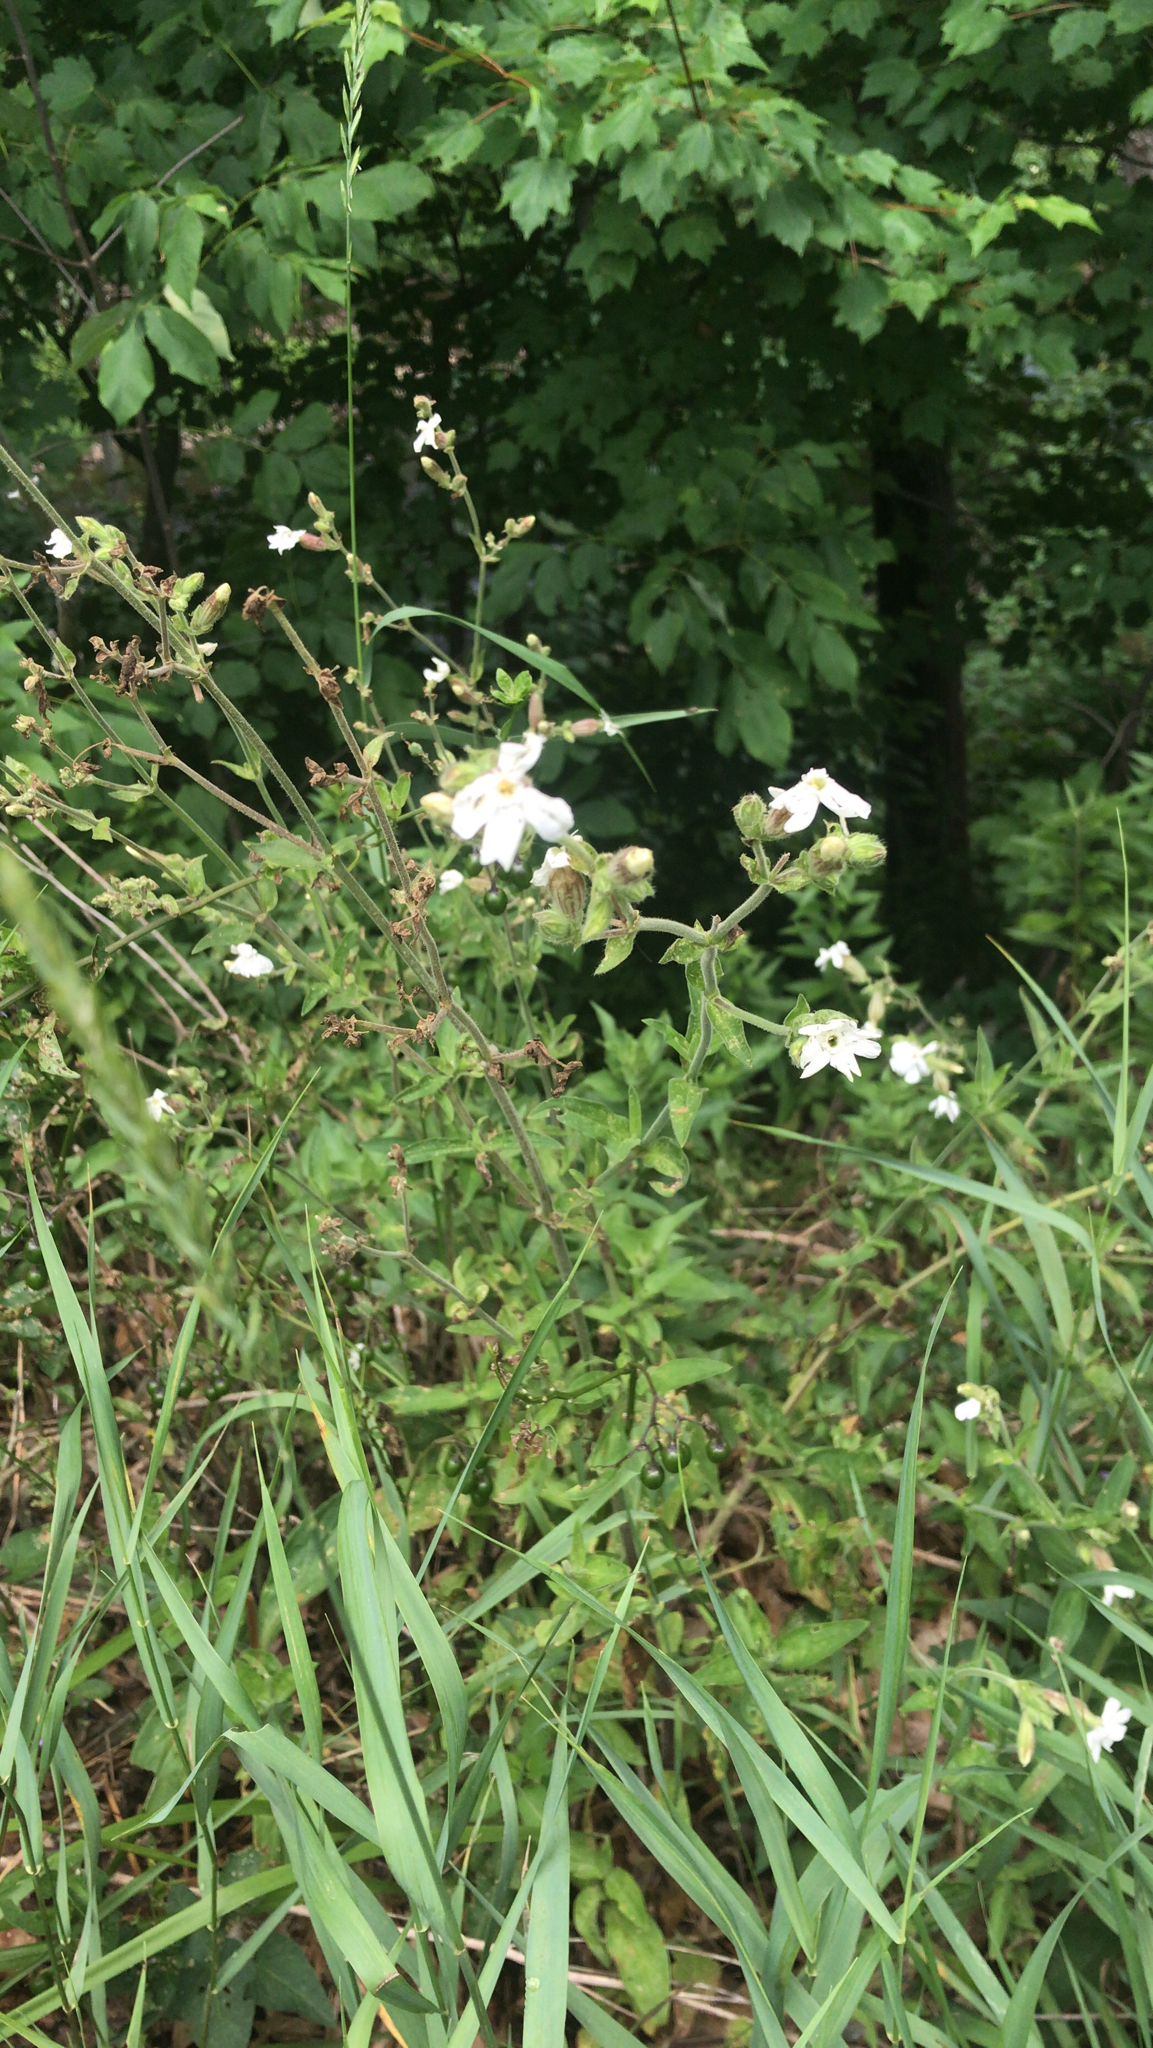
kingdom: Plantae
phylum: Tracheophyta
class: Magnoliopsida
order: Caryophyllales
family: Caryophyllaceae
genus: Silene
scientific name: Silene latifolia
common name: White campion
